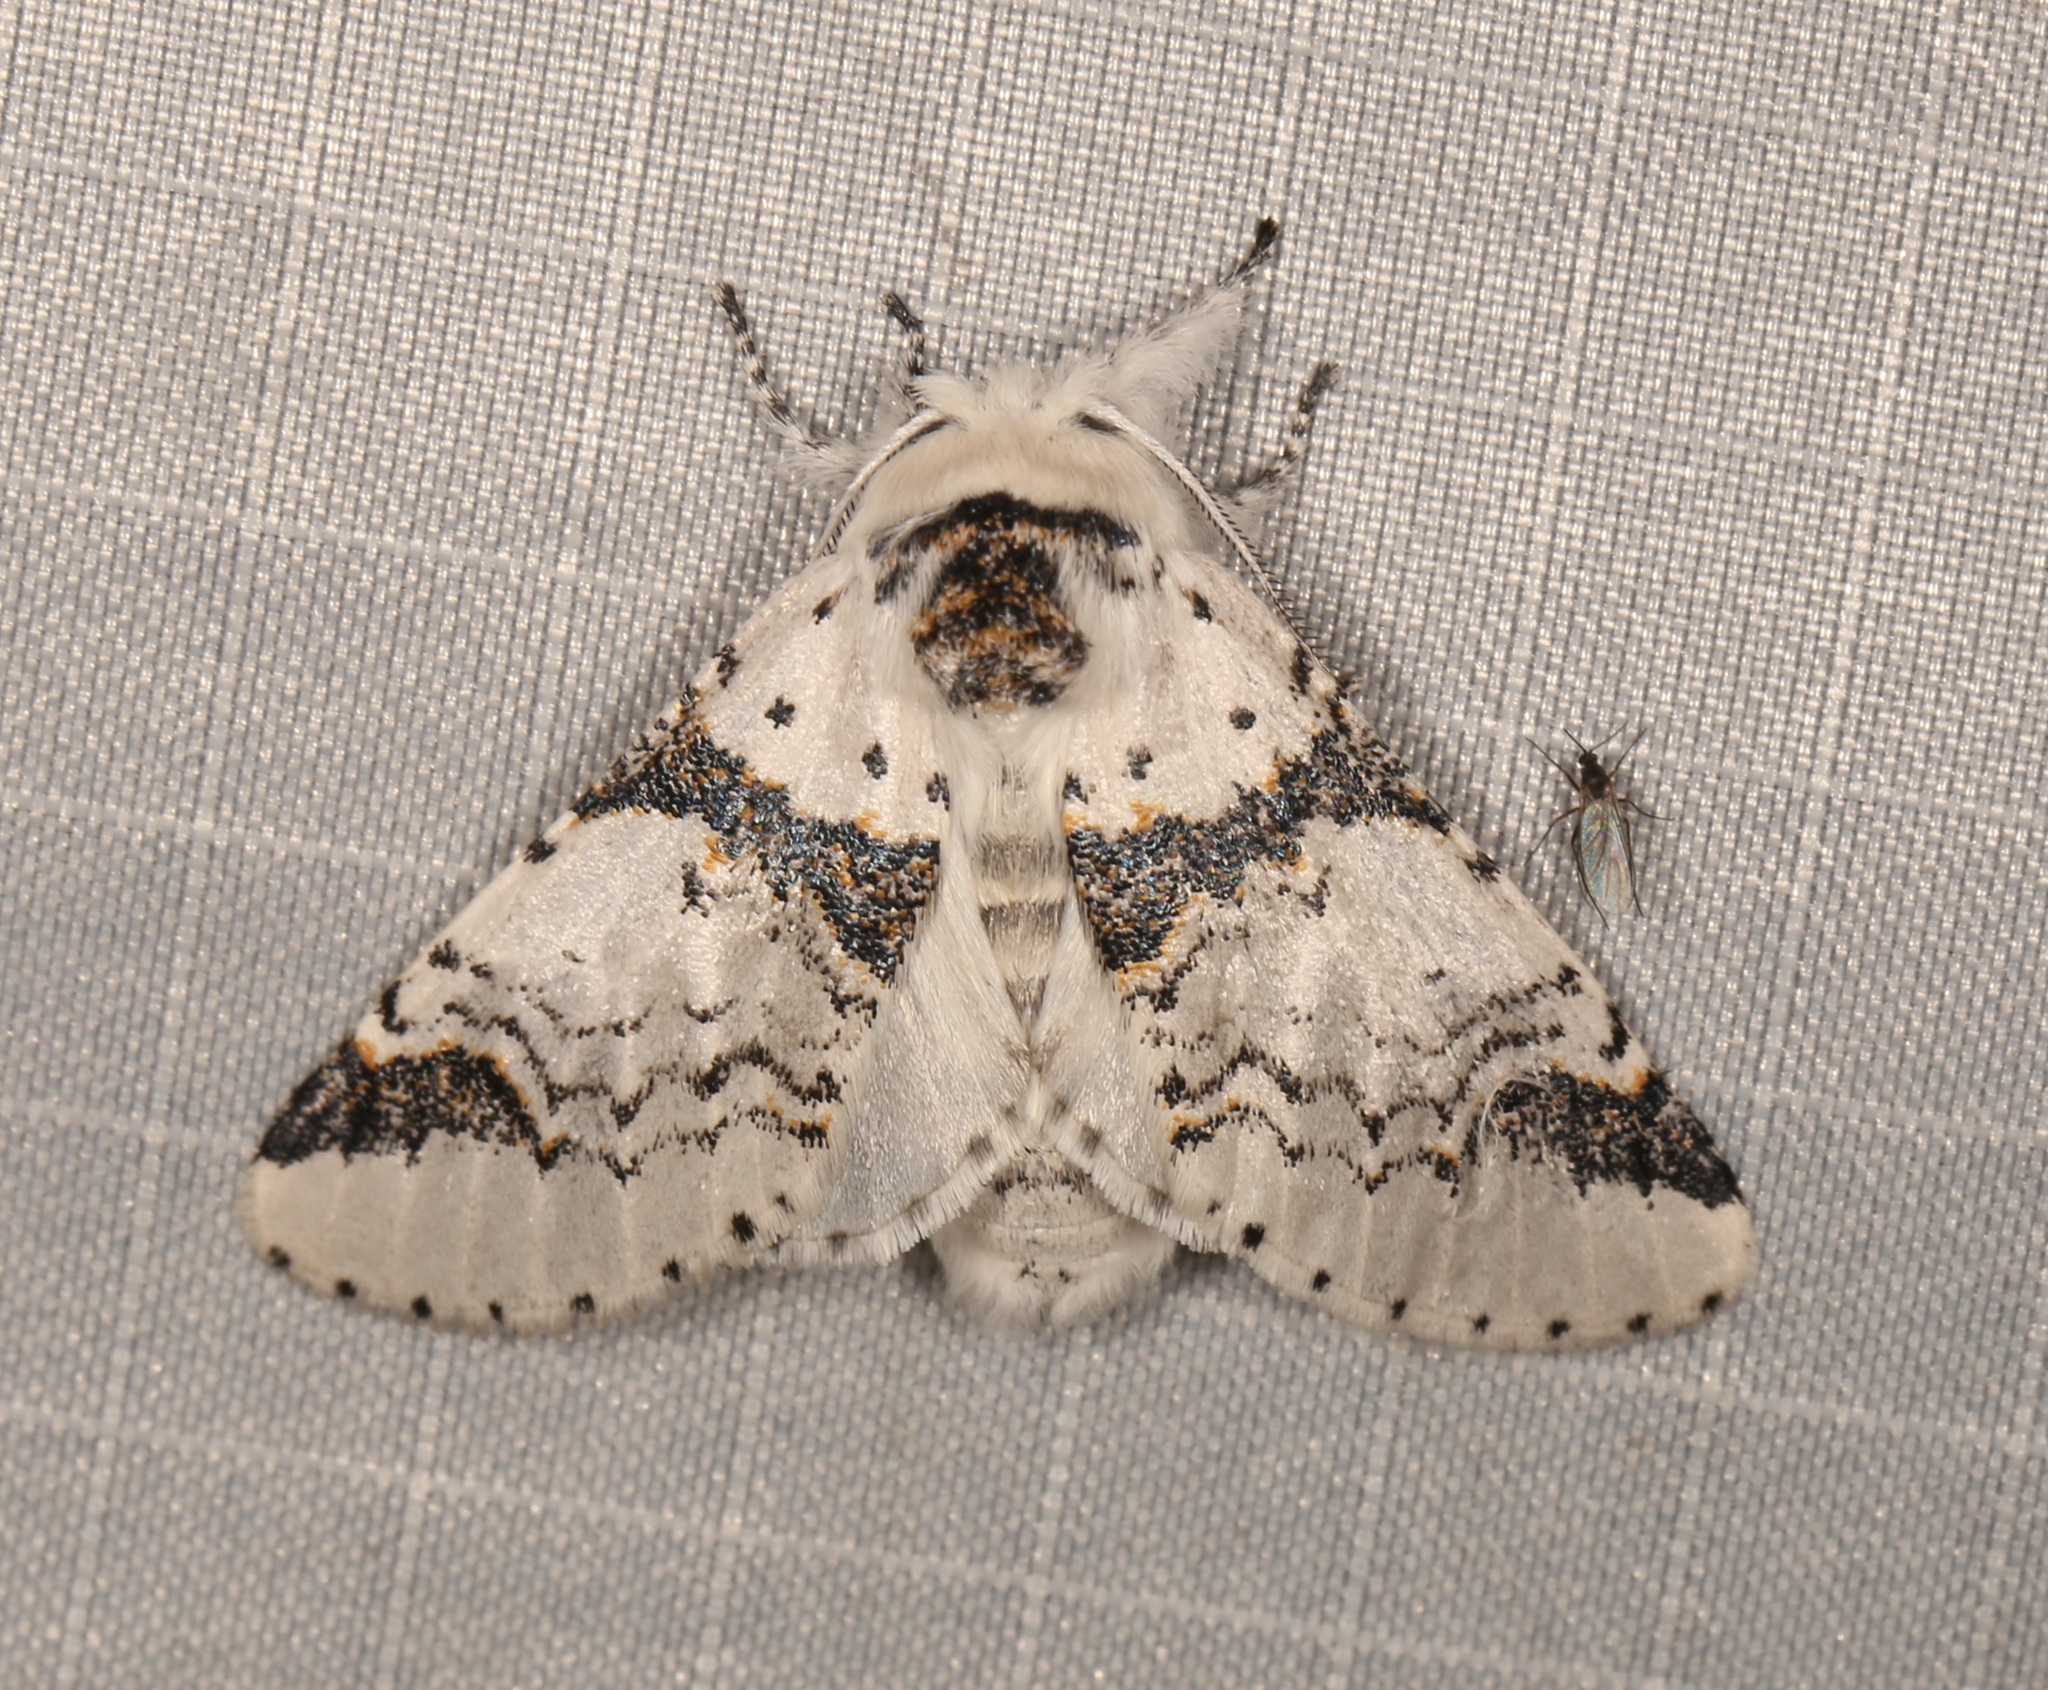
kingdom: Animalia
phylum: Arthropoda
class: Insecta
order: Lepidoptera
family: Notodontidae
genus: Furcula
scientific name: Furcula scolopendrina
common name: Zigzag furcula moth
